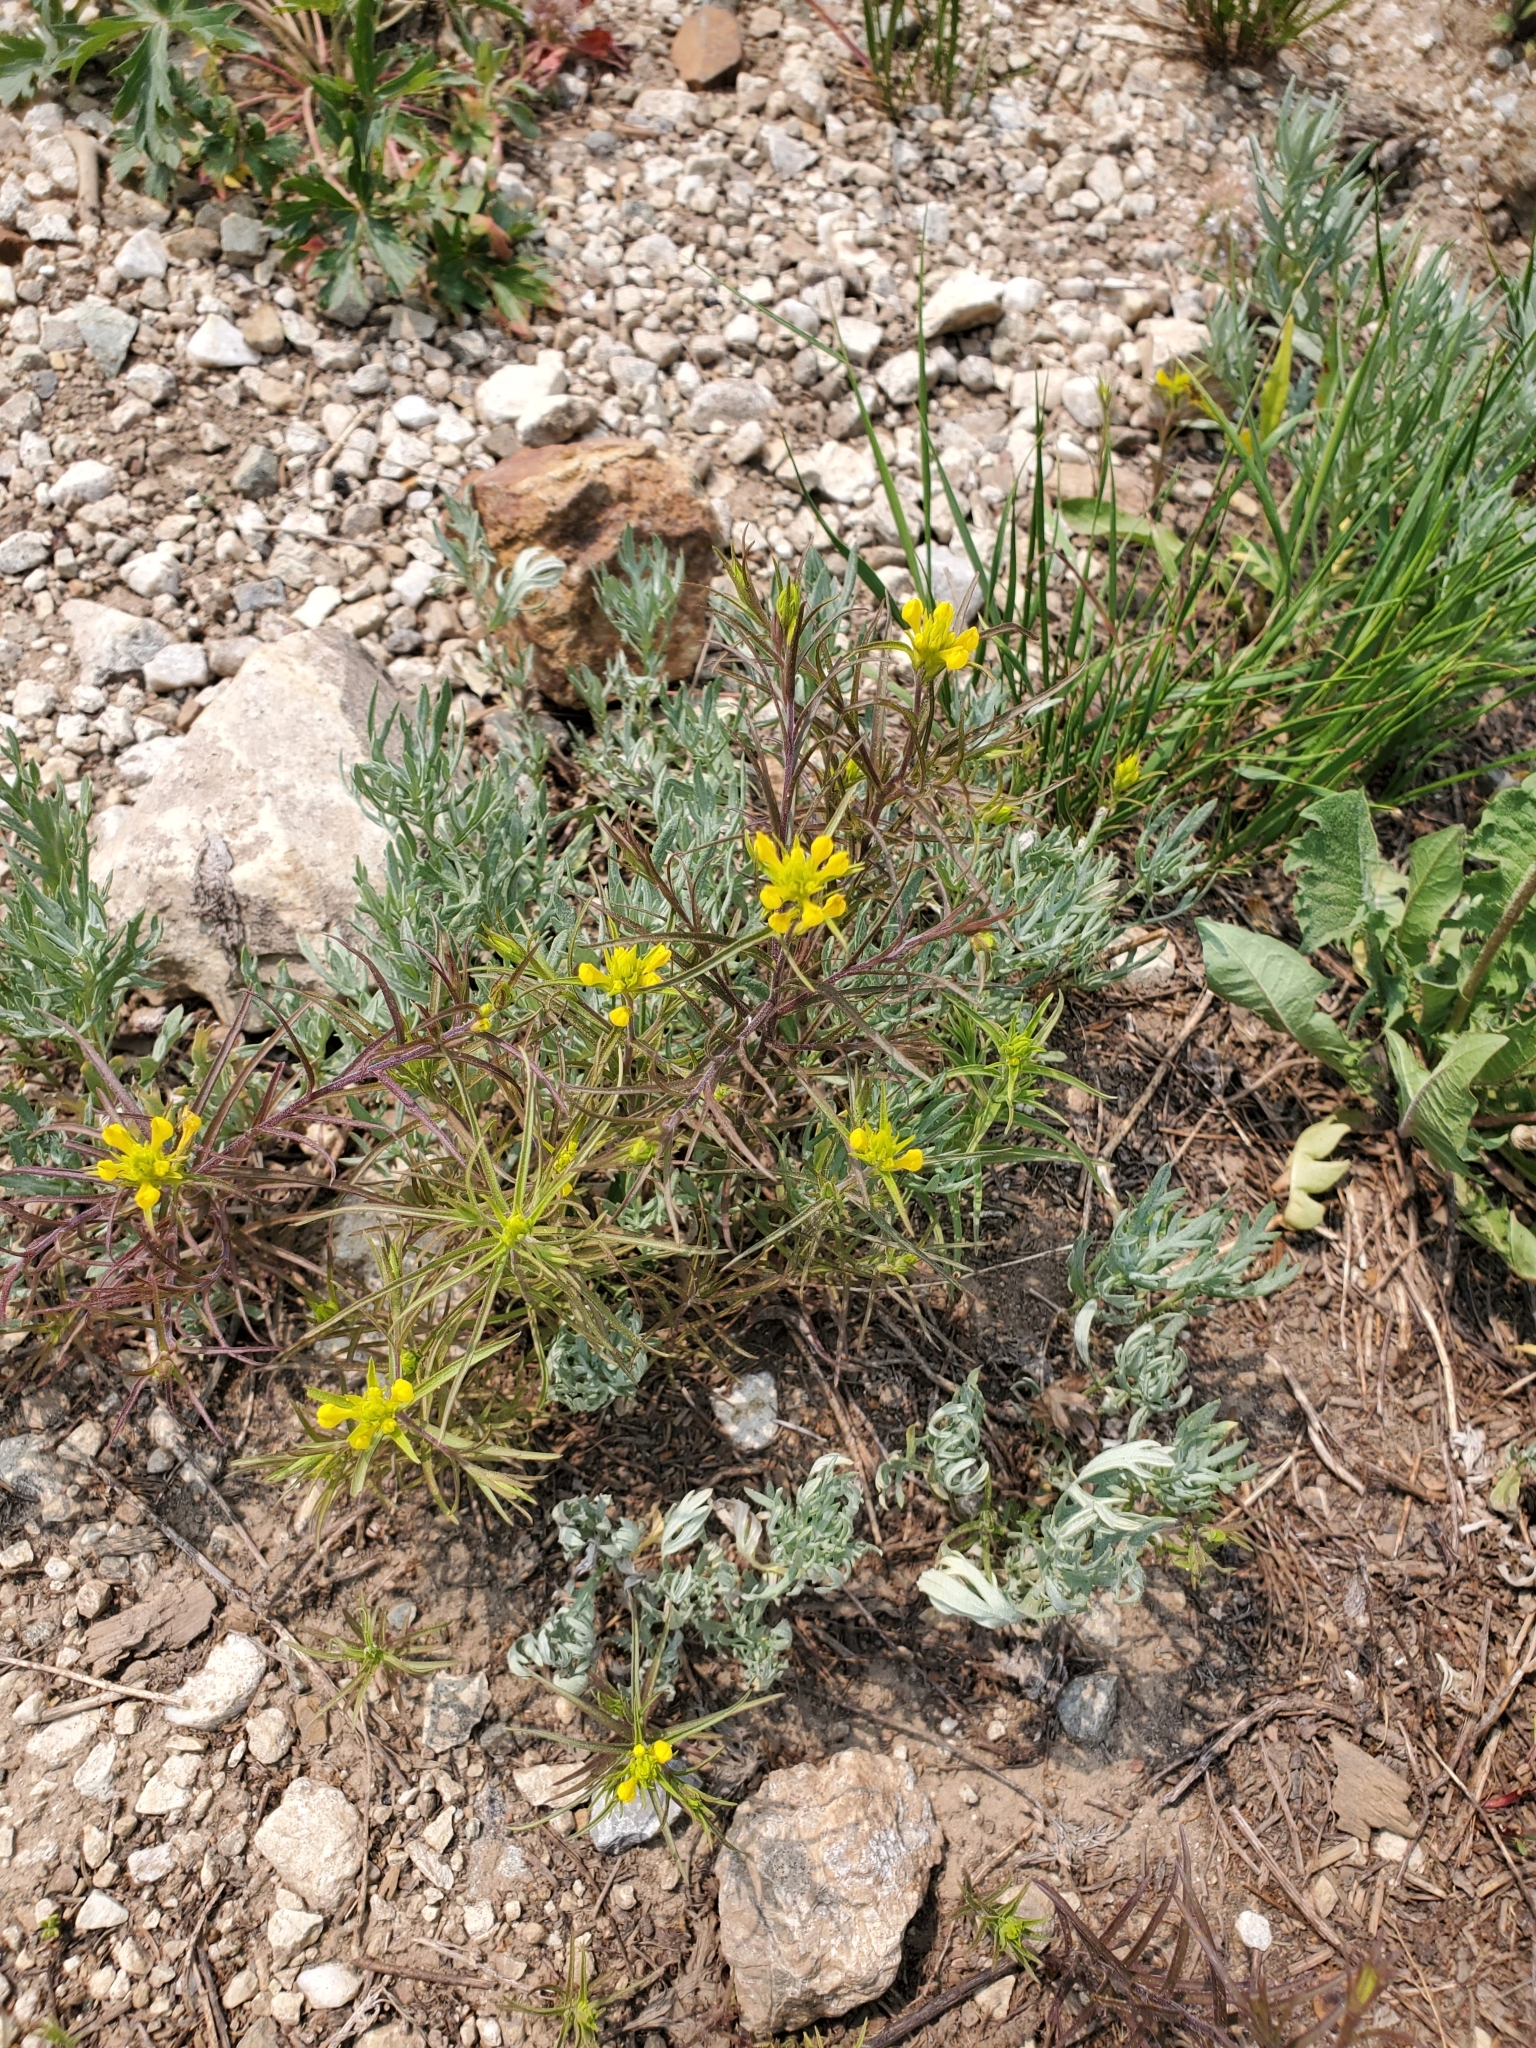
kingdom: Plantae
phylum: Tracheophyta
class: Magnoliopsida
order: Lamiales
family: Orobanchaceae
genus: Orthocarpus
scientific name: Orthocarpus tolmiei
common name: Tolmie's owl-clover
